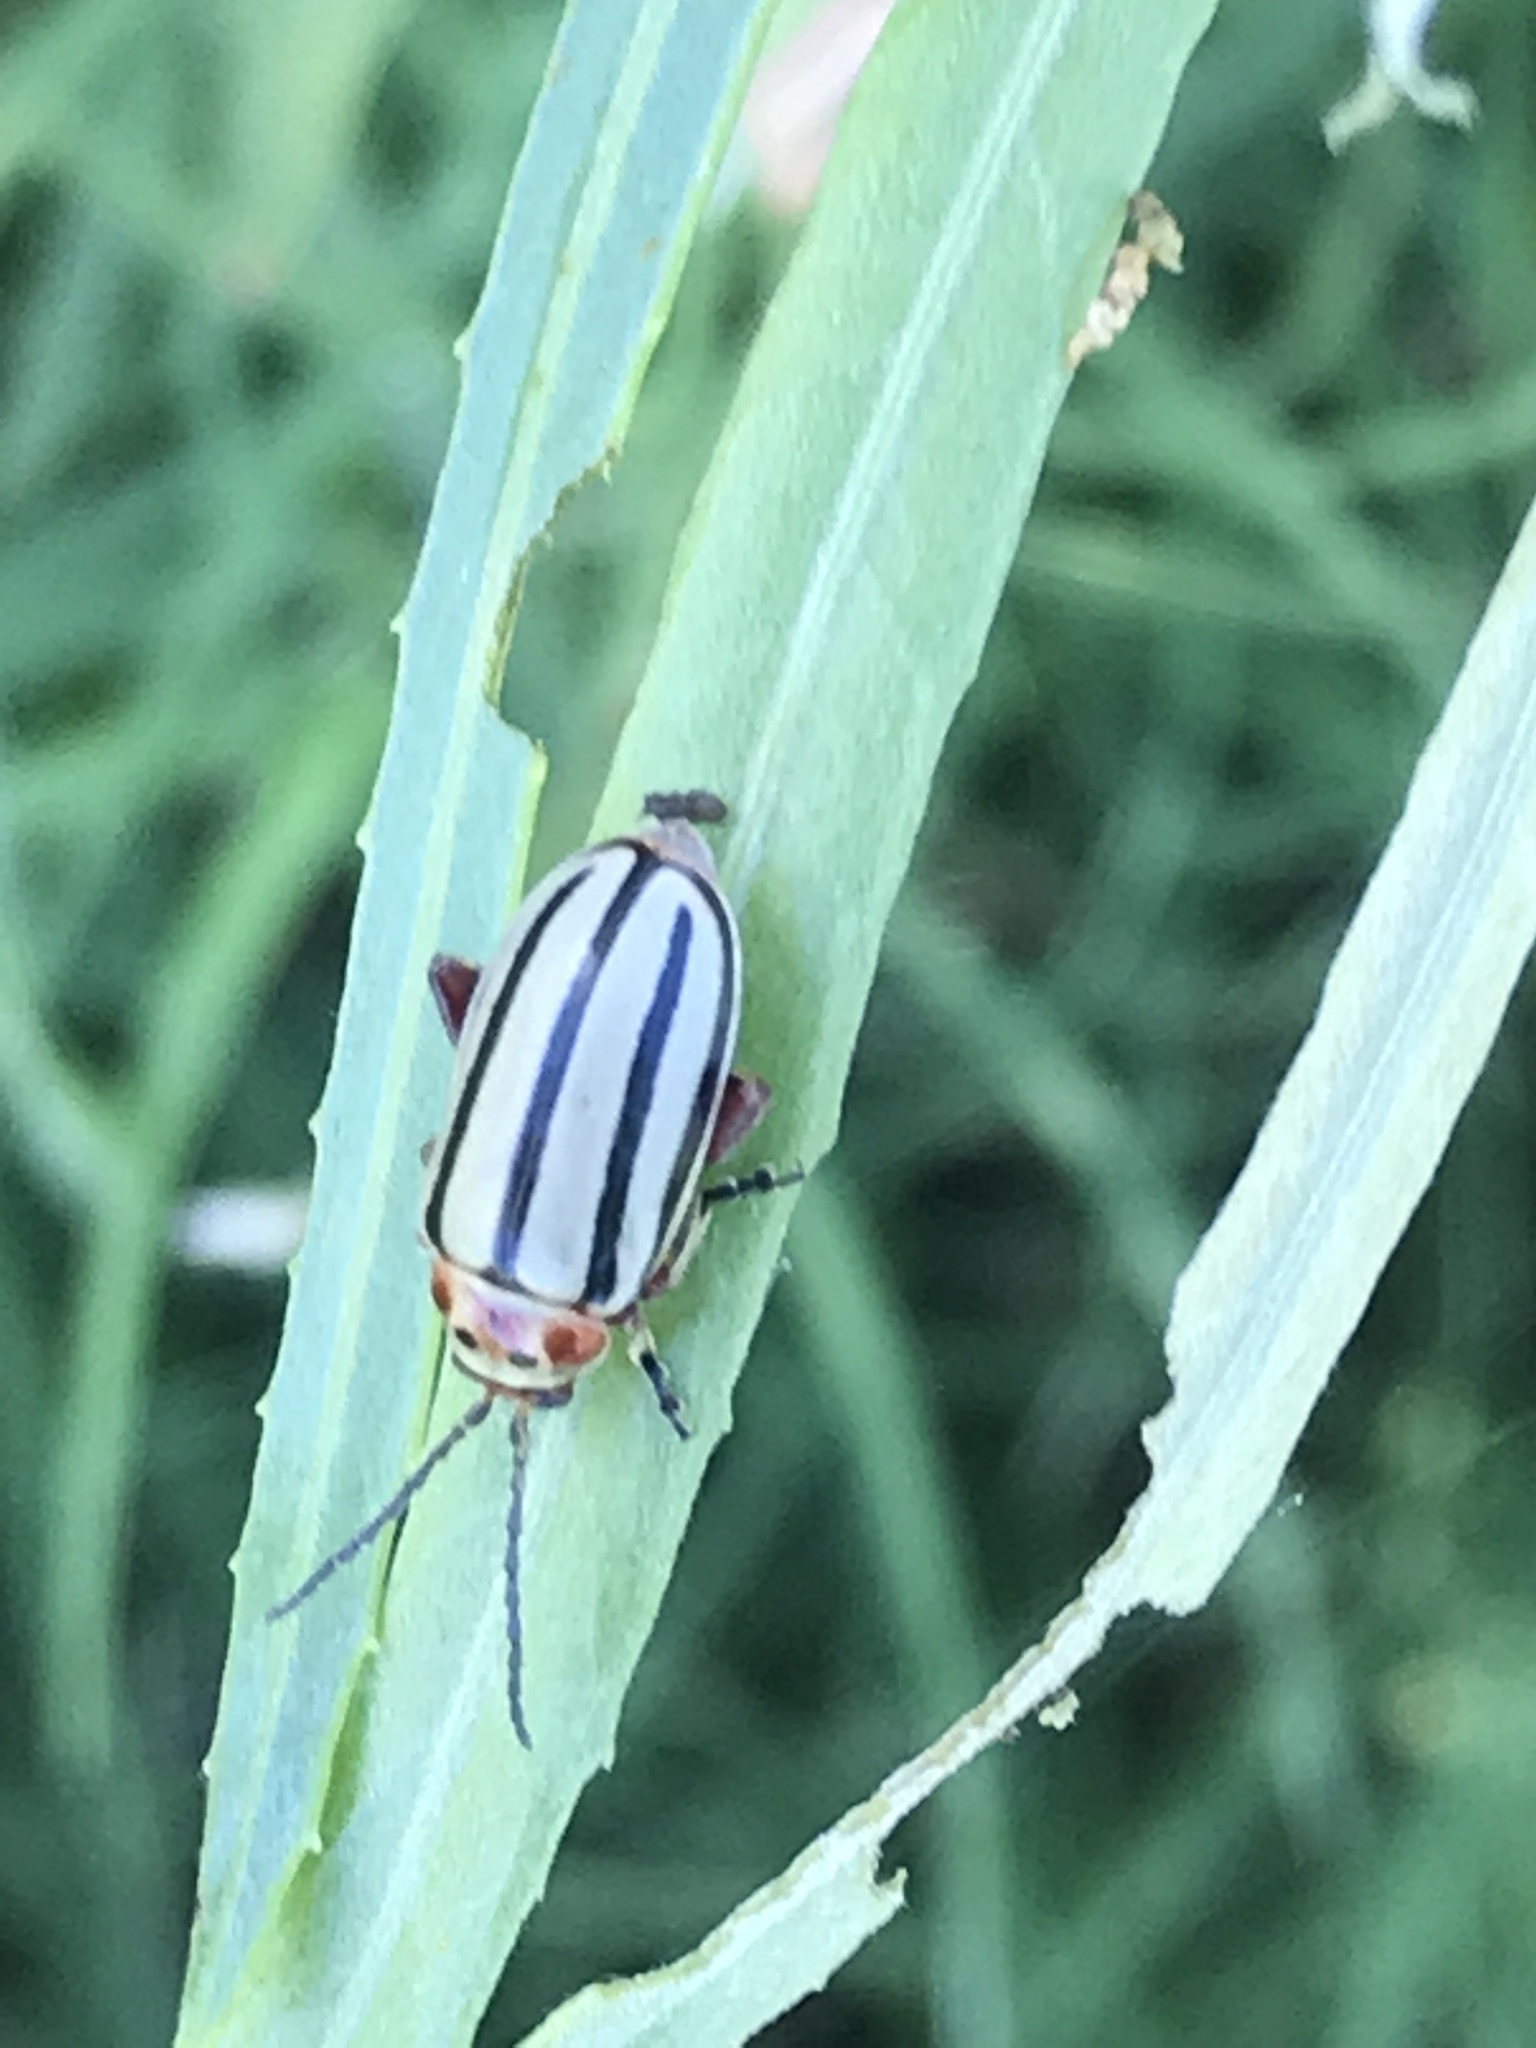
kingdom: Animalia
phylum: Arthropoda
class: Insecta
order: Coleoptera
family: Chrysomelidae
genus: Disonycha
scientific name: Disonycha alternata
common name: Striped willow leaf beetle
